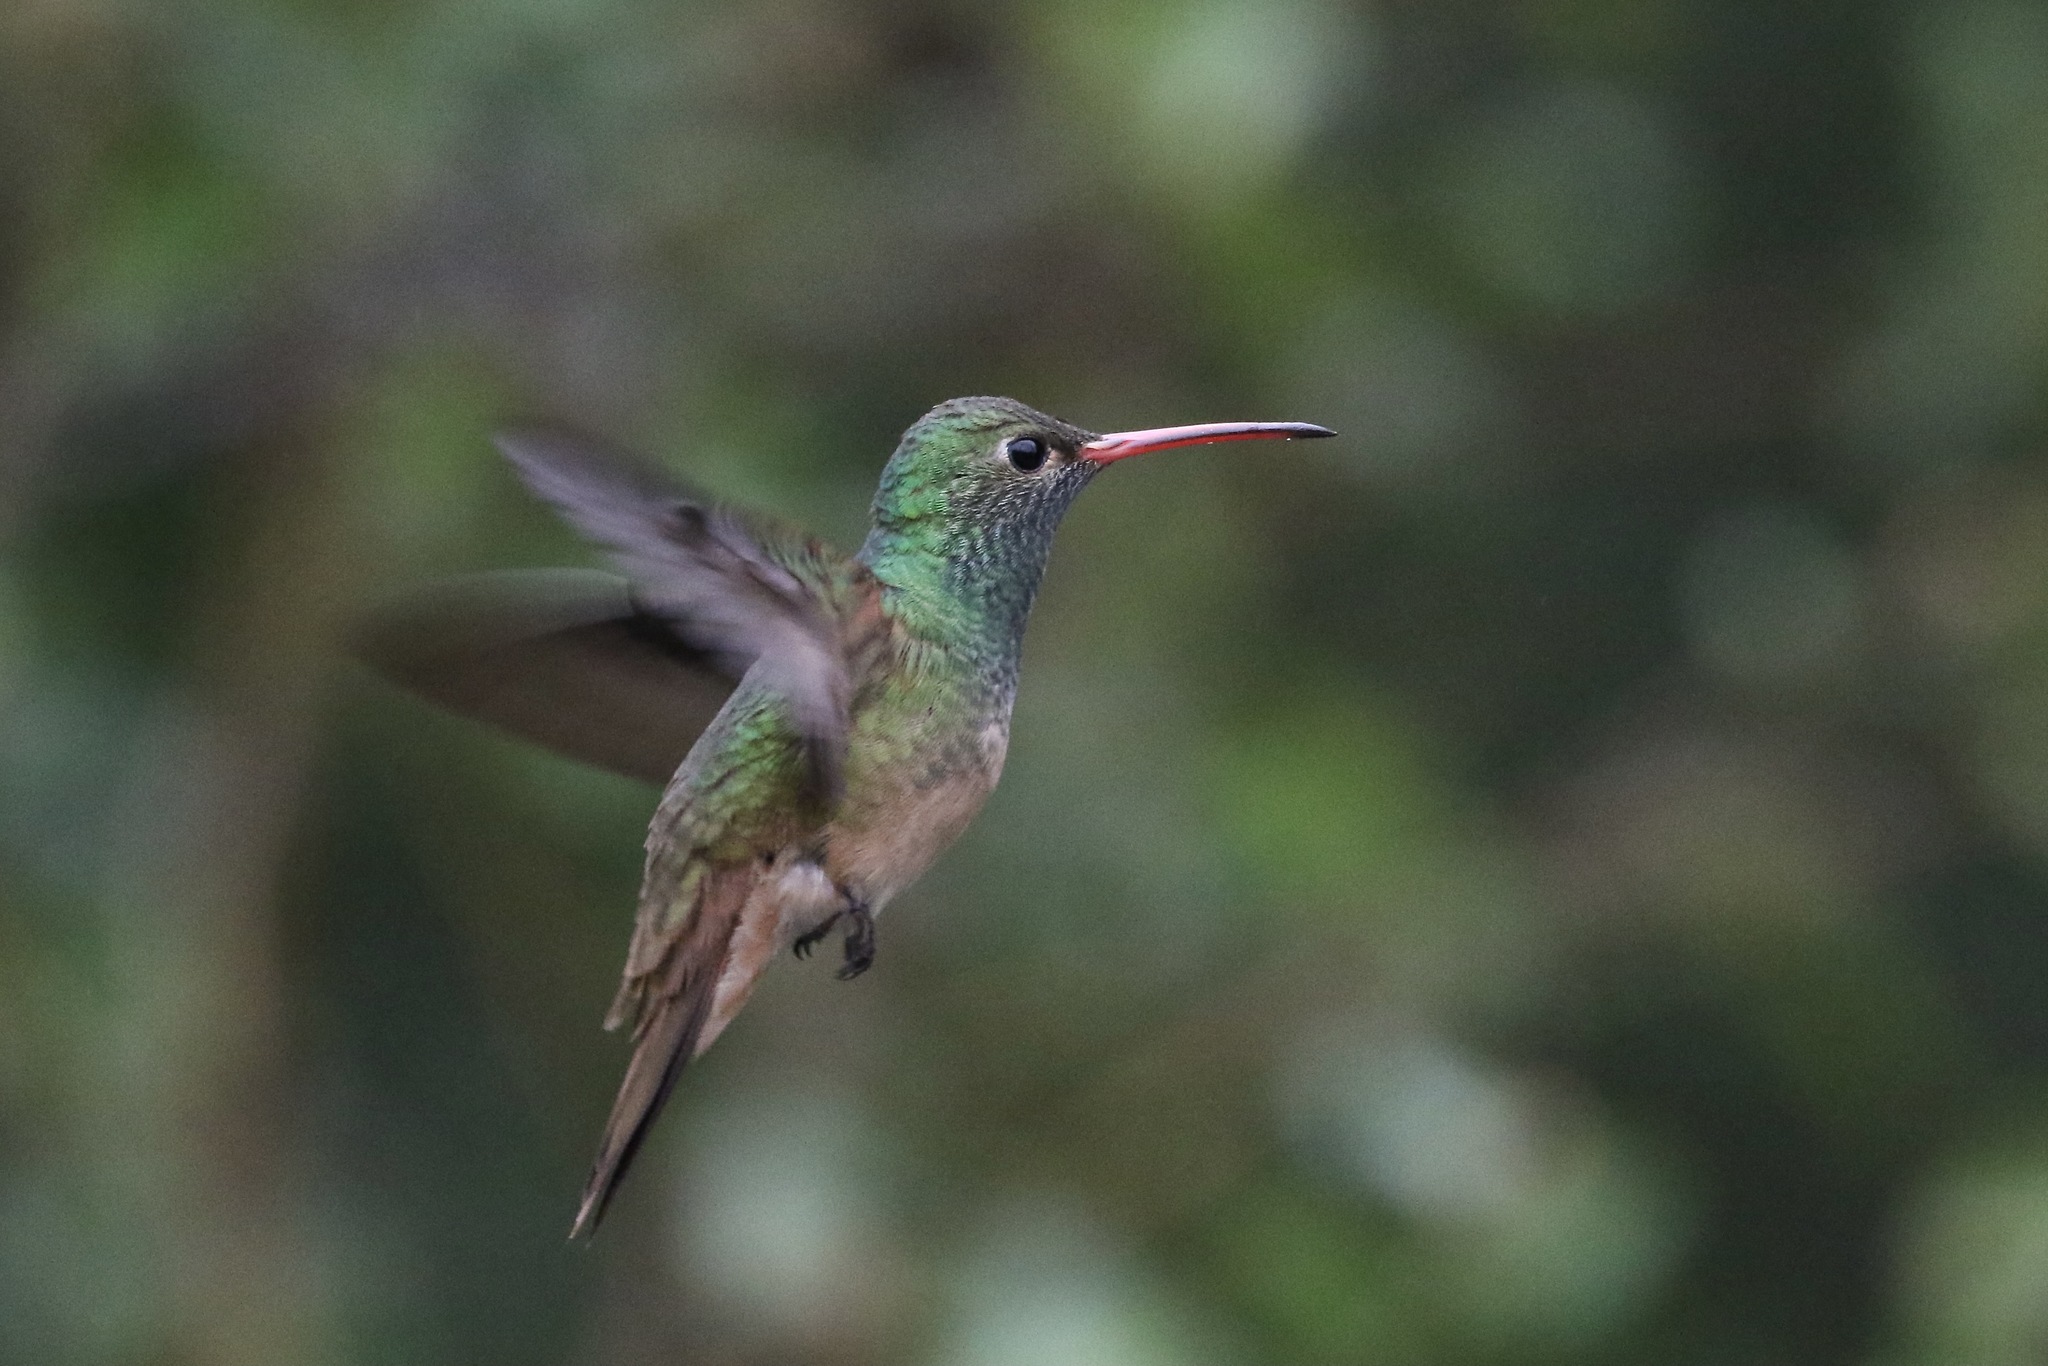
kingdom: Animalia
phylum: Chordata
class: Aves
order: Apodiformes
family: Trochilidae
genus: Amazilia
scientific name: Amazilia yucatanensis
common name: Buff-bellied hummingbird
